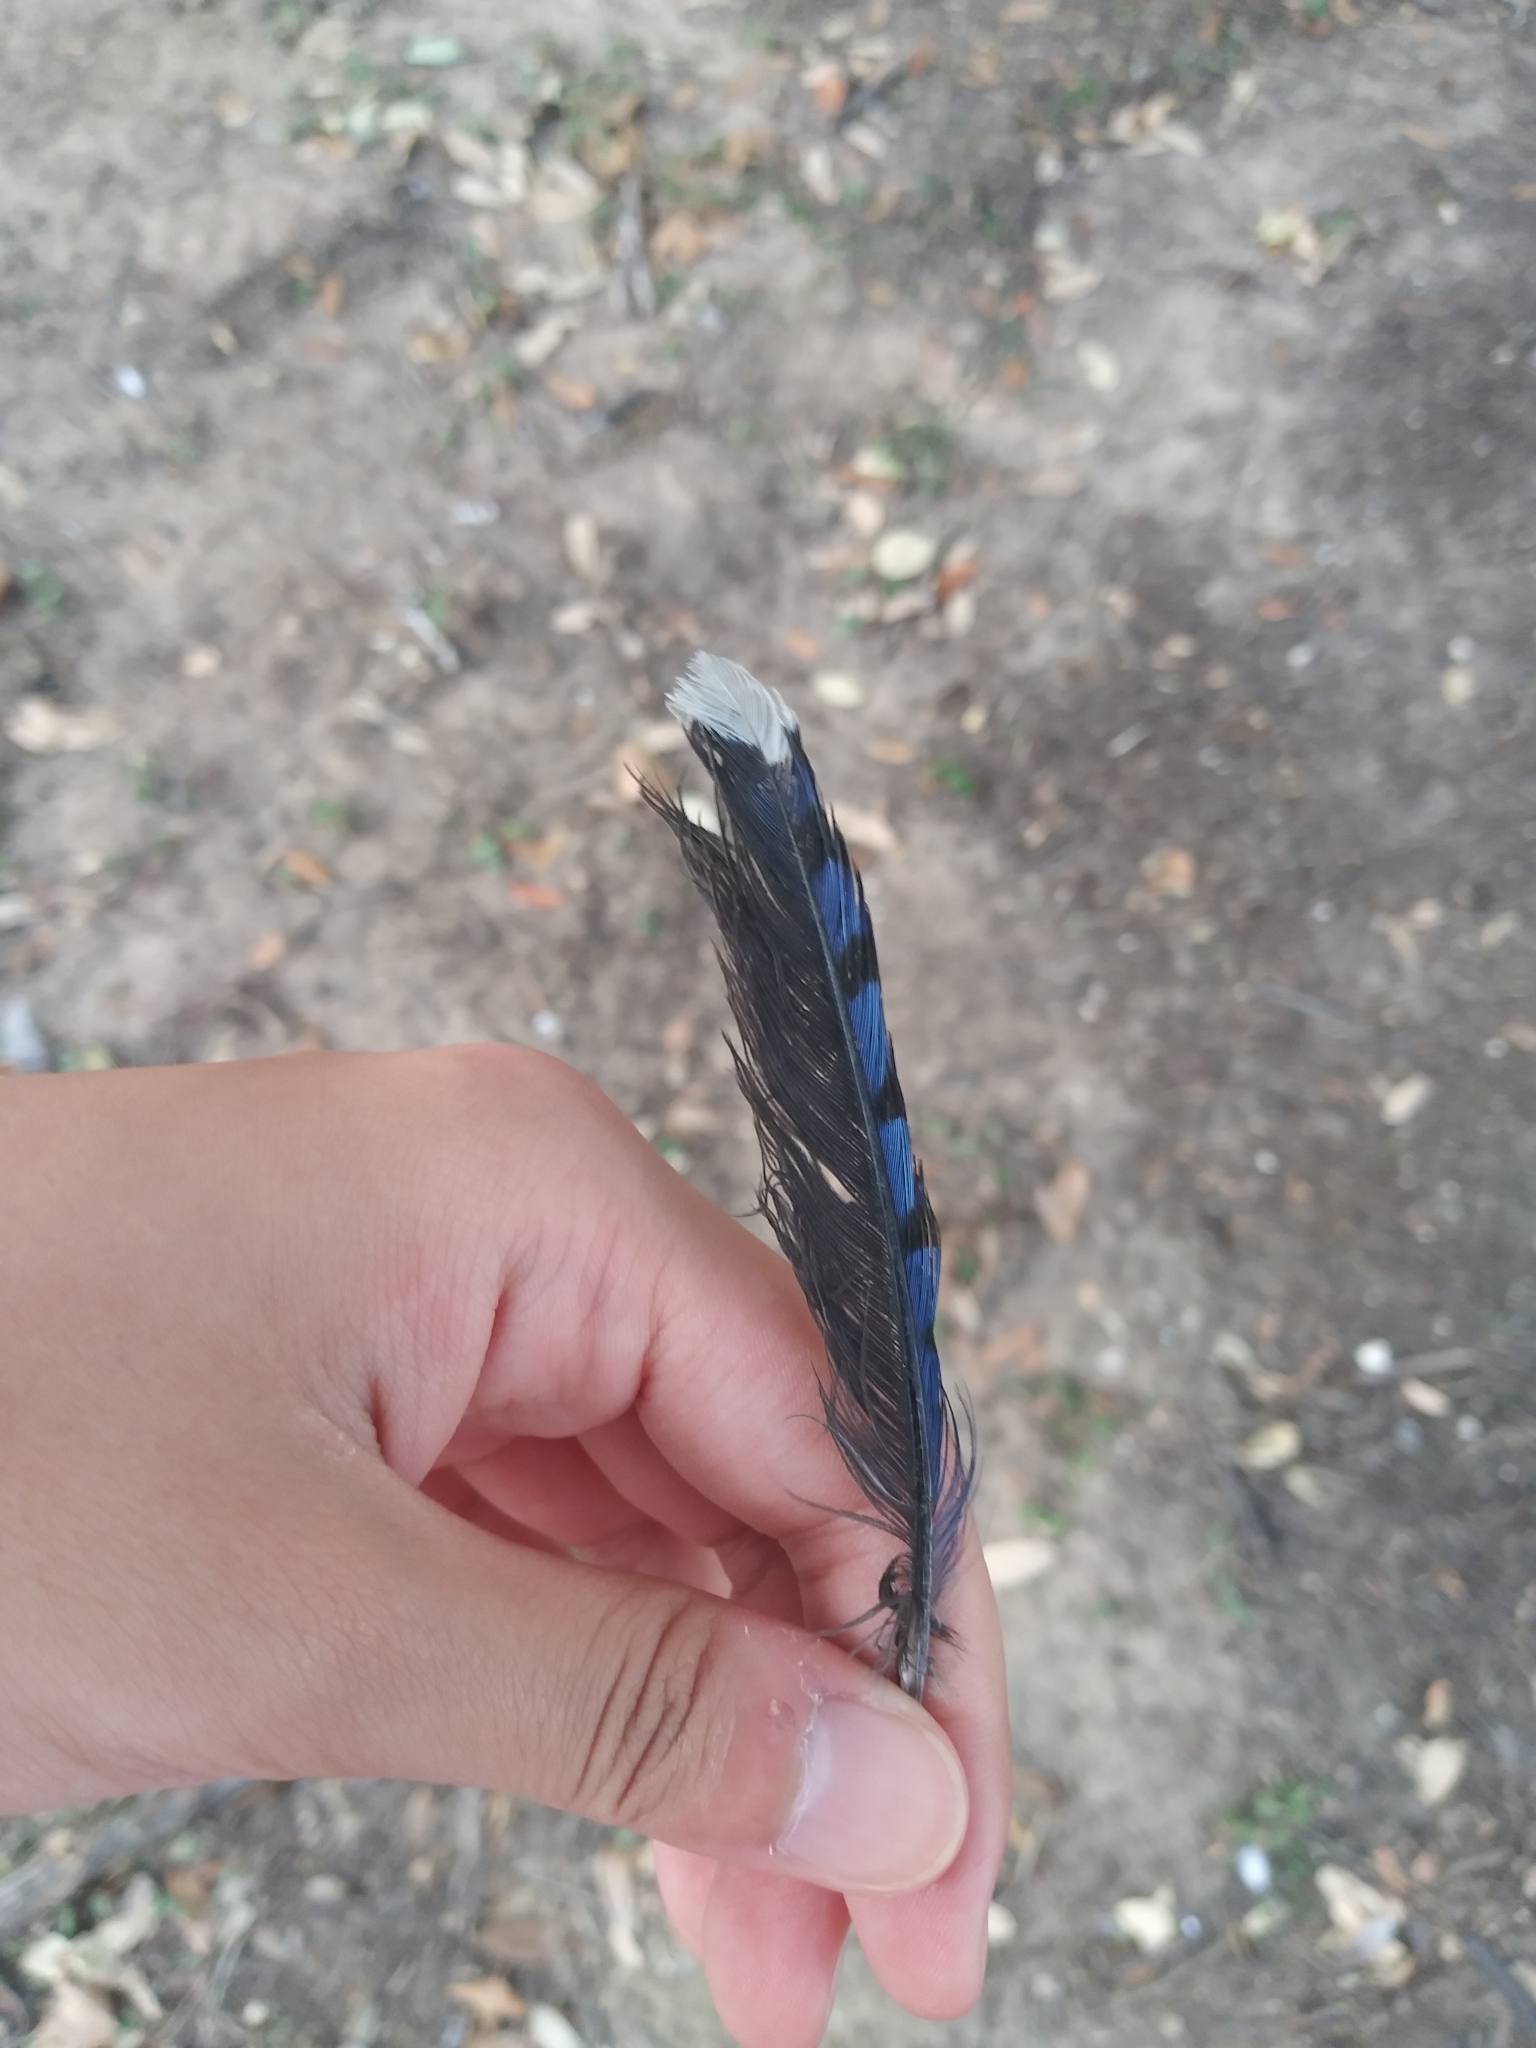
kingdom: Animalia
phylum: Chordata
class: Aves
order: Passeriformes
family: Corvidae
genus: Cyanocitta
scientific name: Cyanocitta cristata
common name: Blue jay
